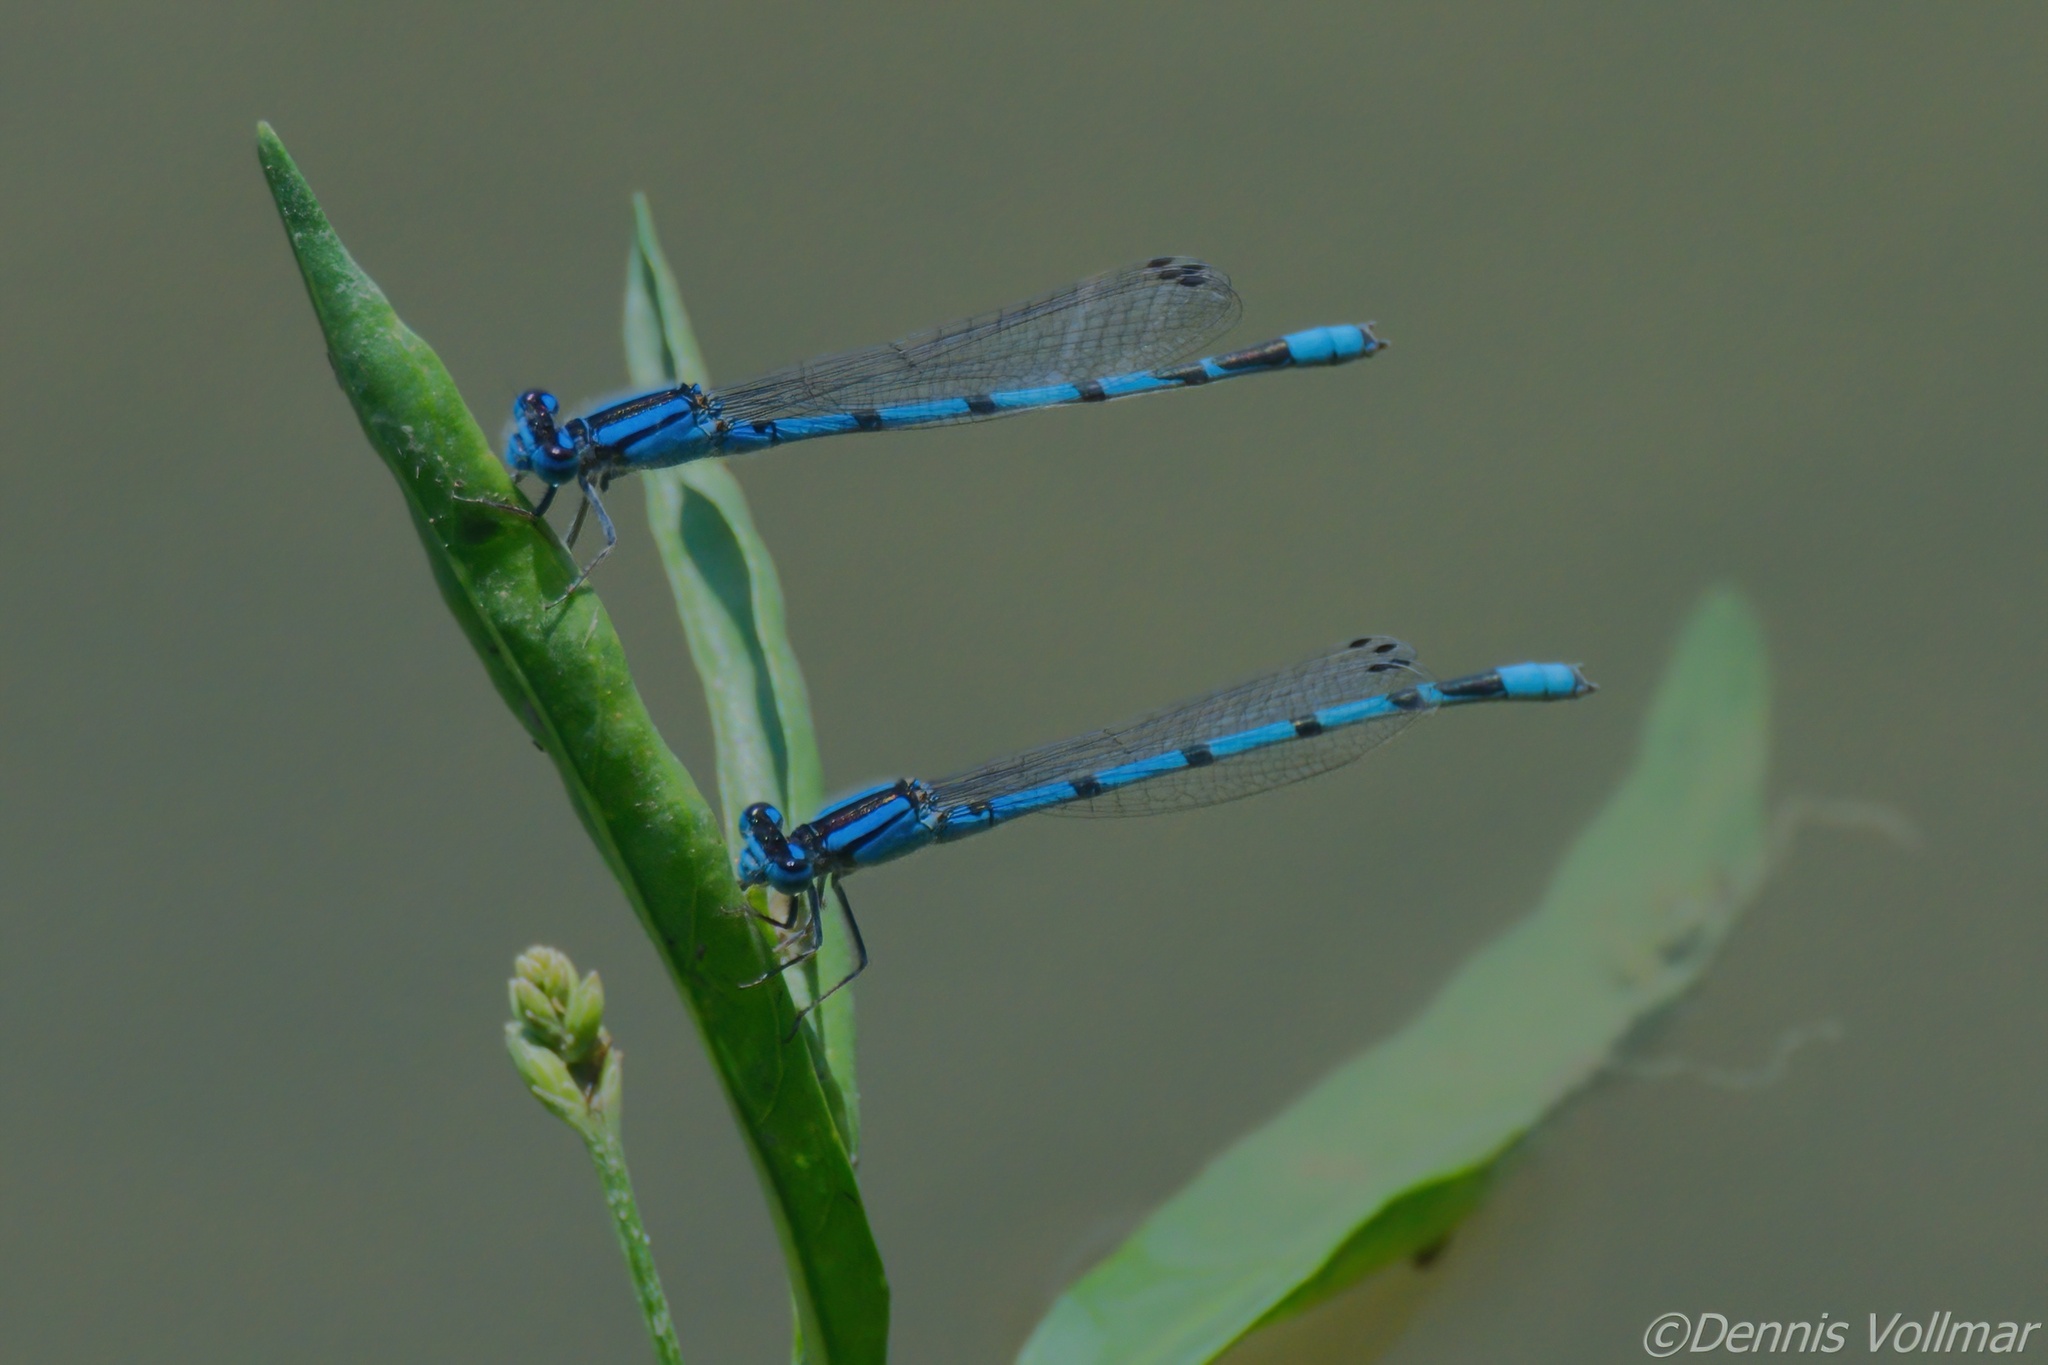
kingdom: Animalia
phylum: Arthropoda
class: Insecta
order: Odonata
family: Coenagrionidae
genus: Enallagma
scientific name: Enallagma civile
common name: Damselfly
